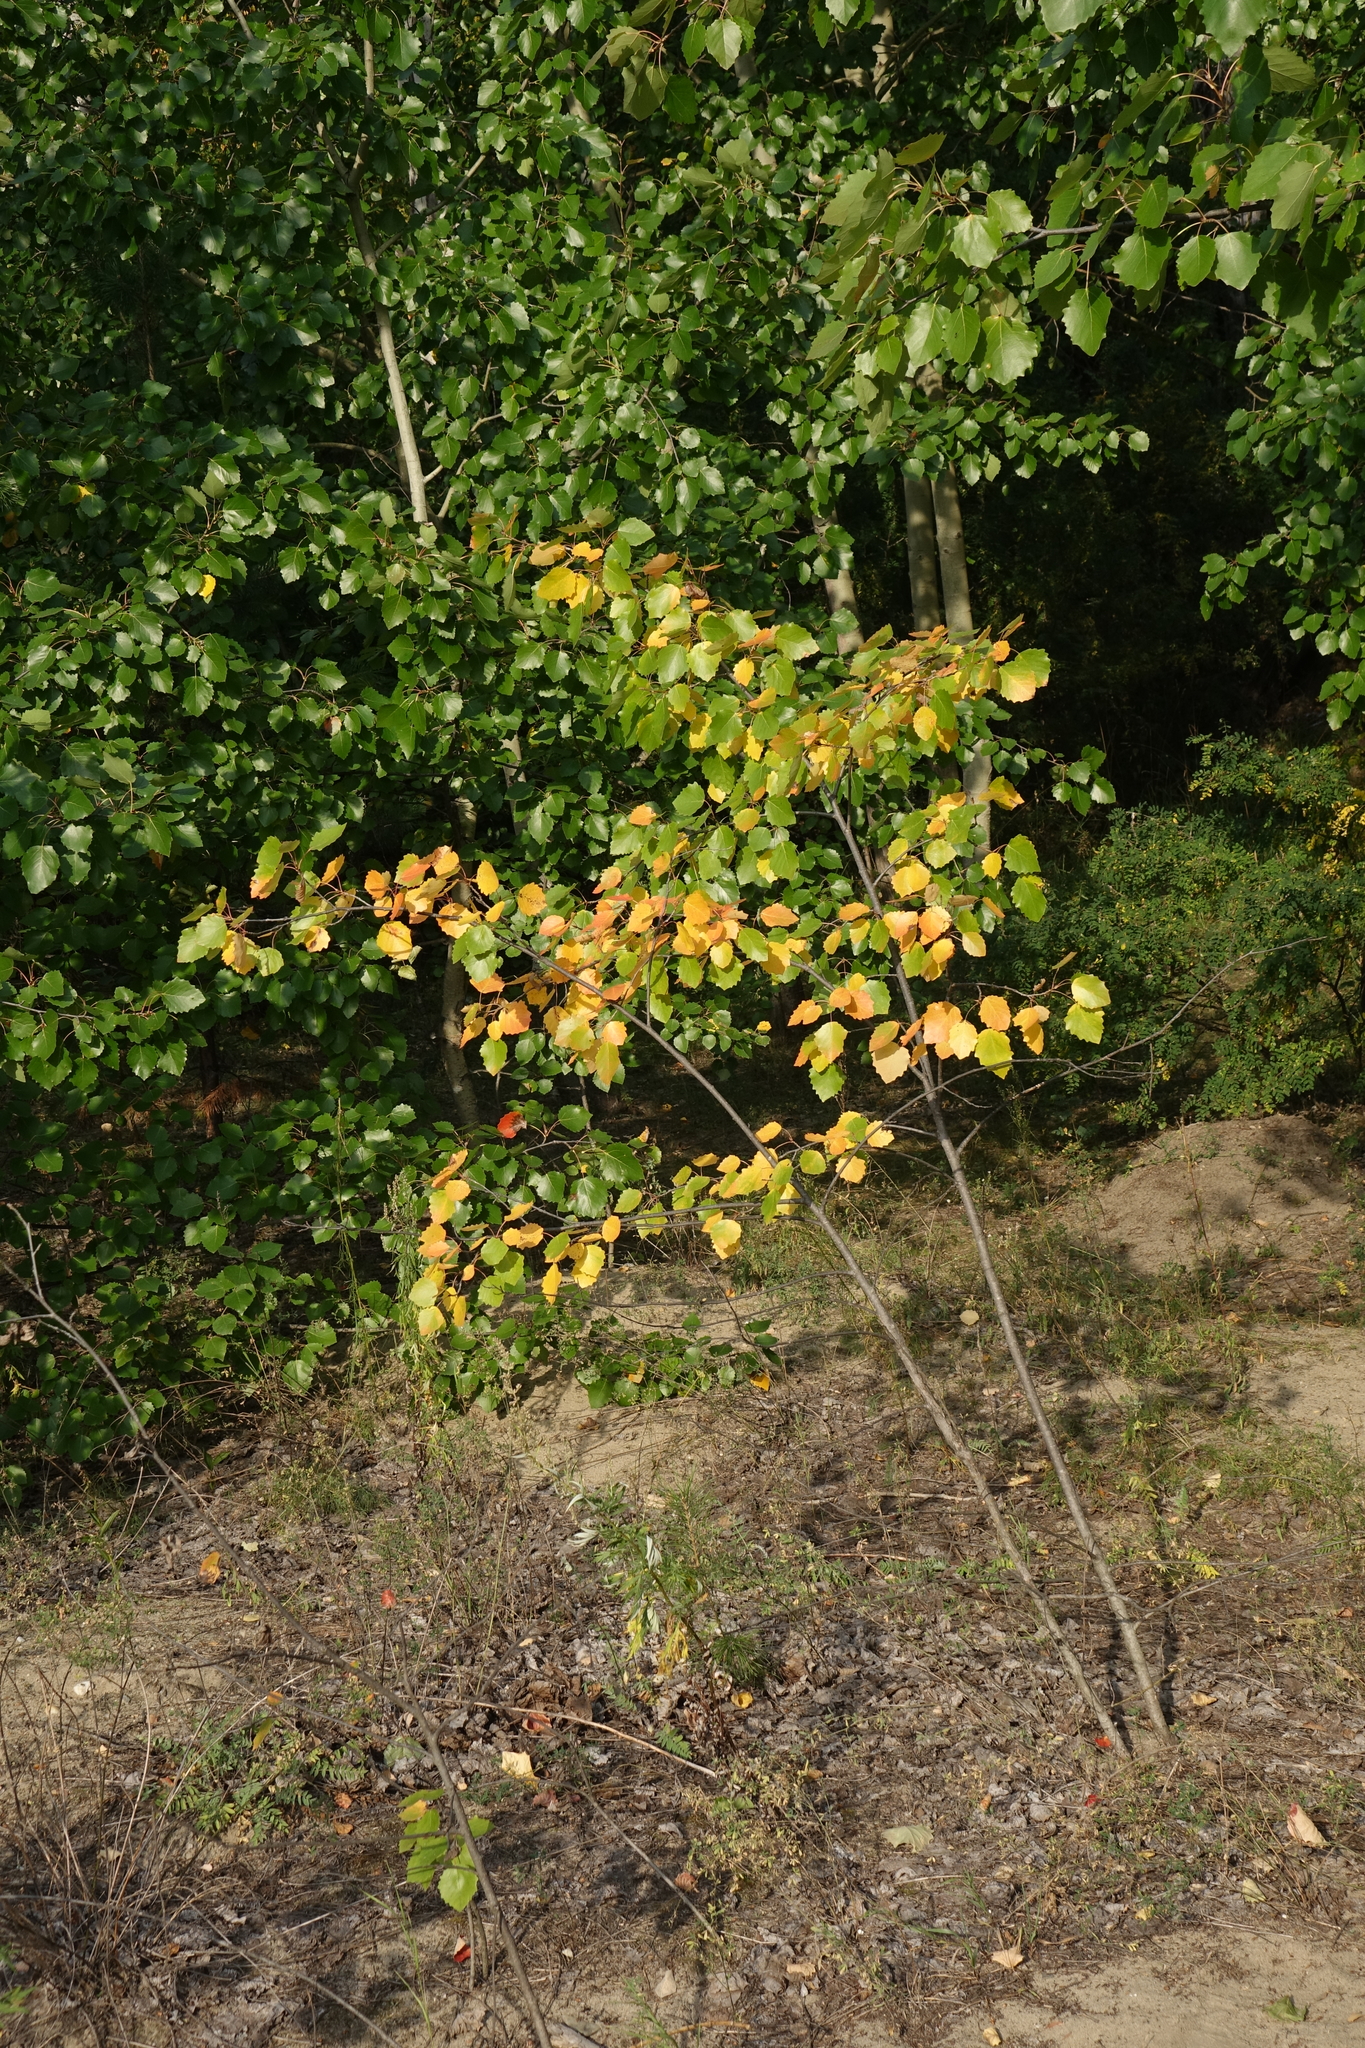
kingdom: Plantae
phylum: Tracheophyta
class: Magnoliopsida
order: Malpighiales
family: Salicaceae
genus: Populus
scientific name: Populus tremula
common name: European aspen
